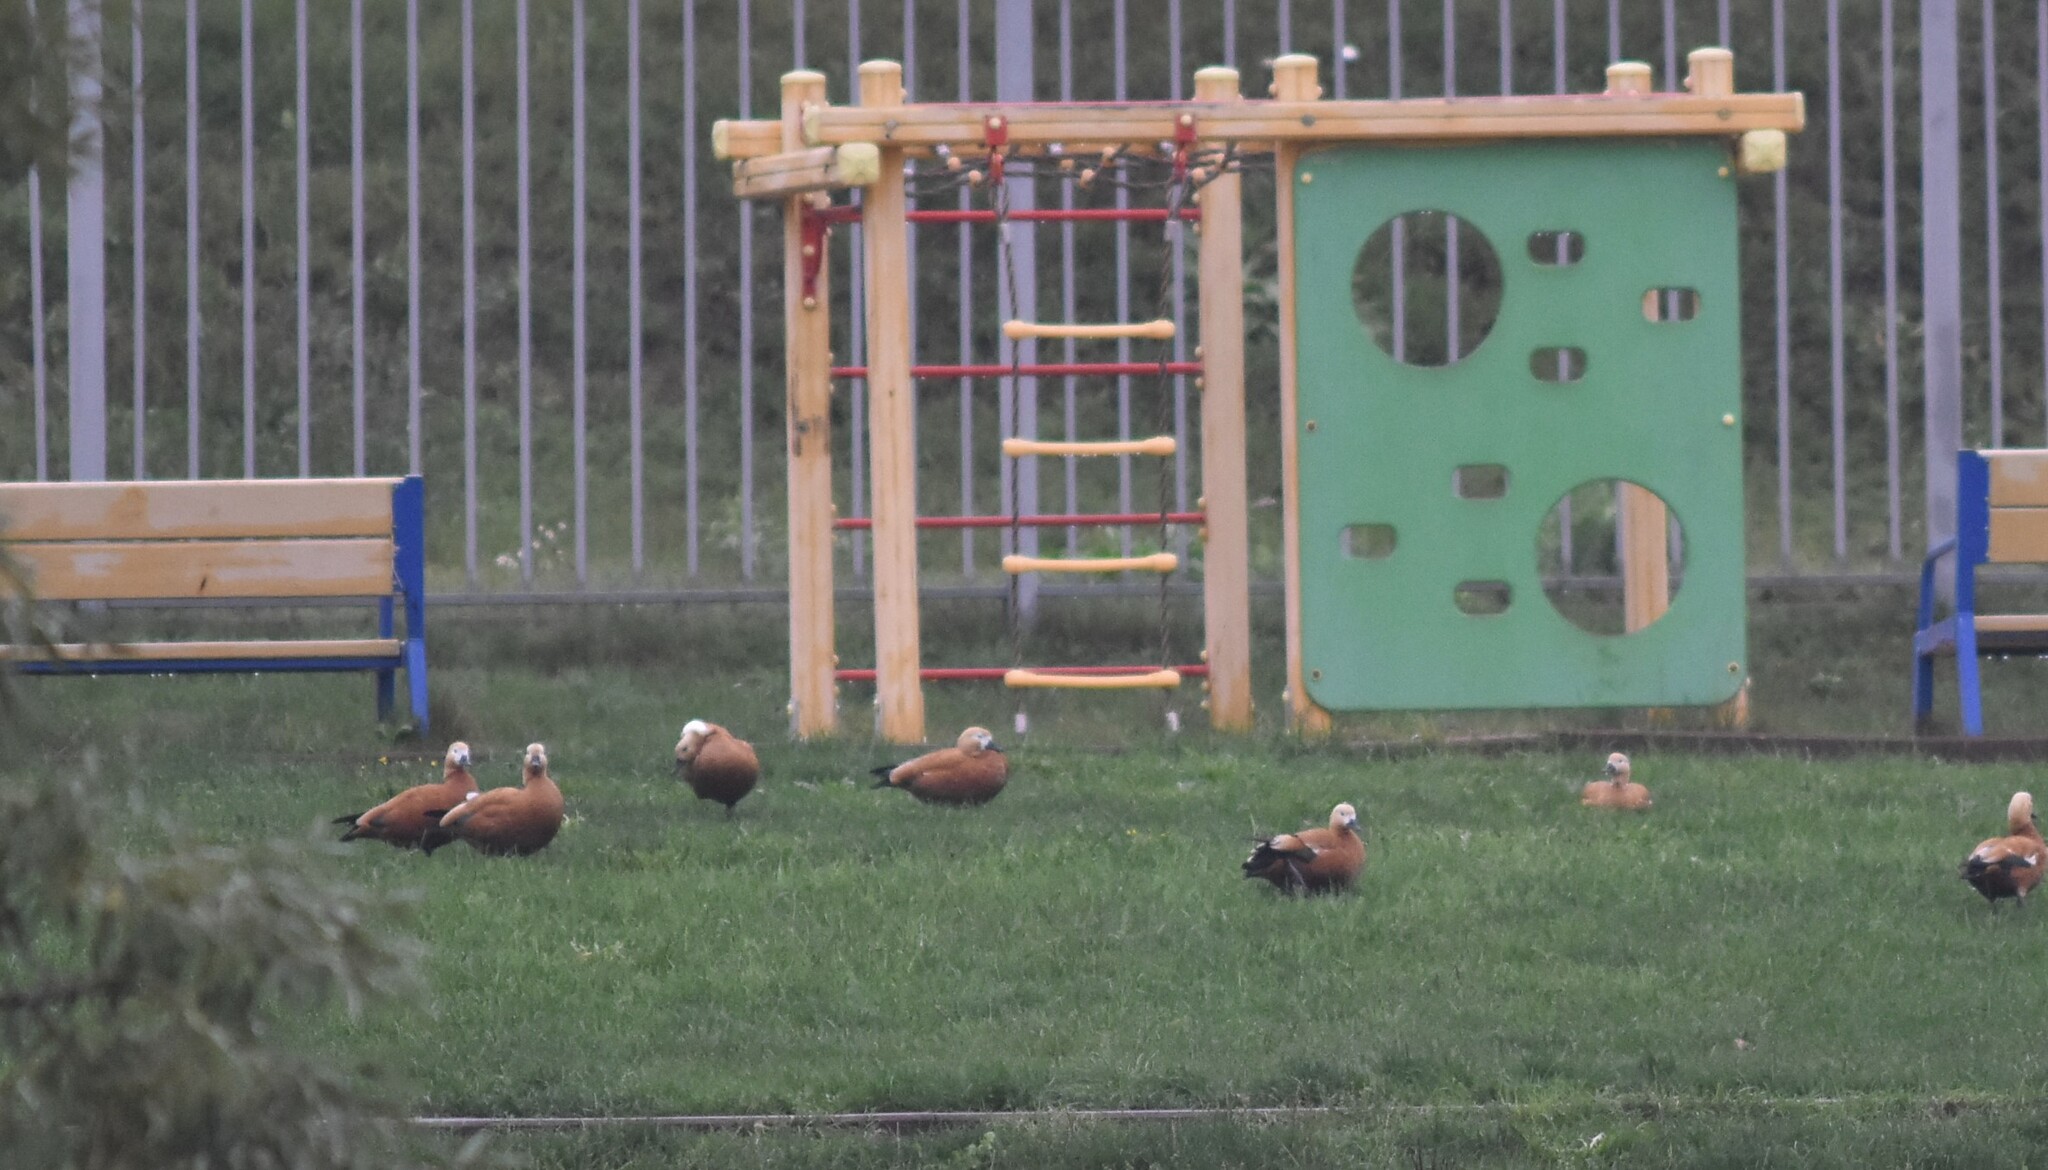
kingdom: Animalia
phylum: Chordata
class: Aves
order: Anseriformes
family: Anatidae
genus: Tadorna
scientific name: Tadorna ferruginea
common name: Ruddy shelduck
